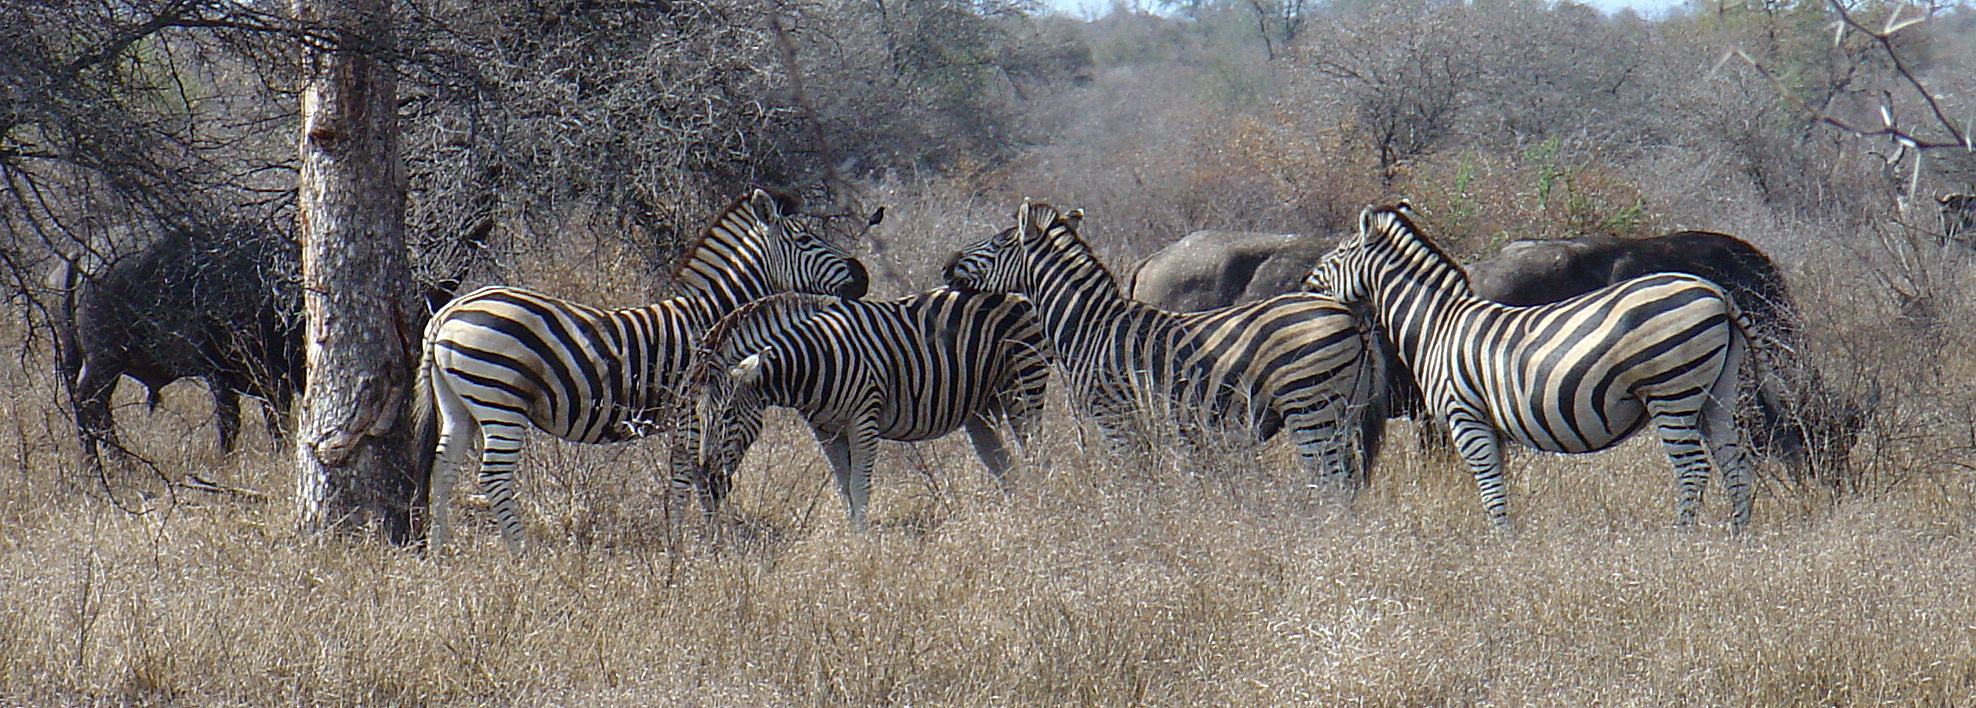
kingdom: Animalia
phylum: Chordata
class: Mammalia
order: Perissodactyla
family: Equidae
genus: Equus
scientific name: Equus quagga
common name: Plains zebra
